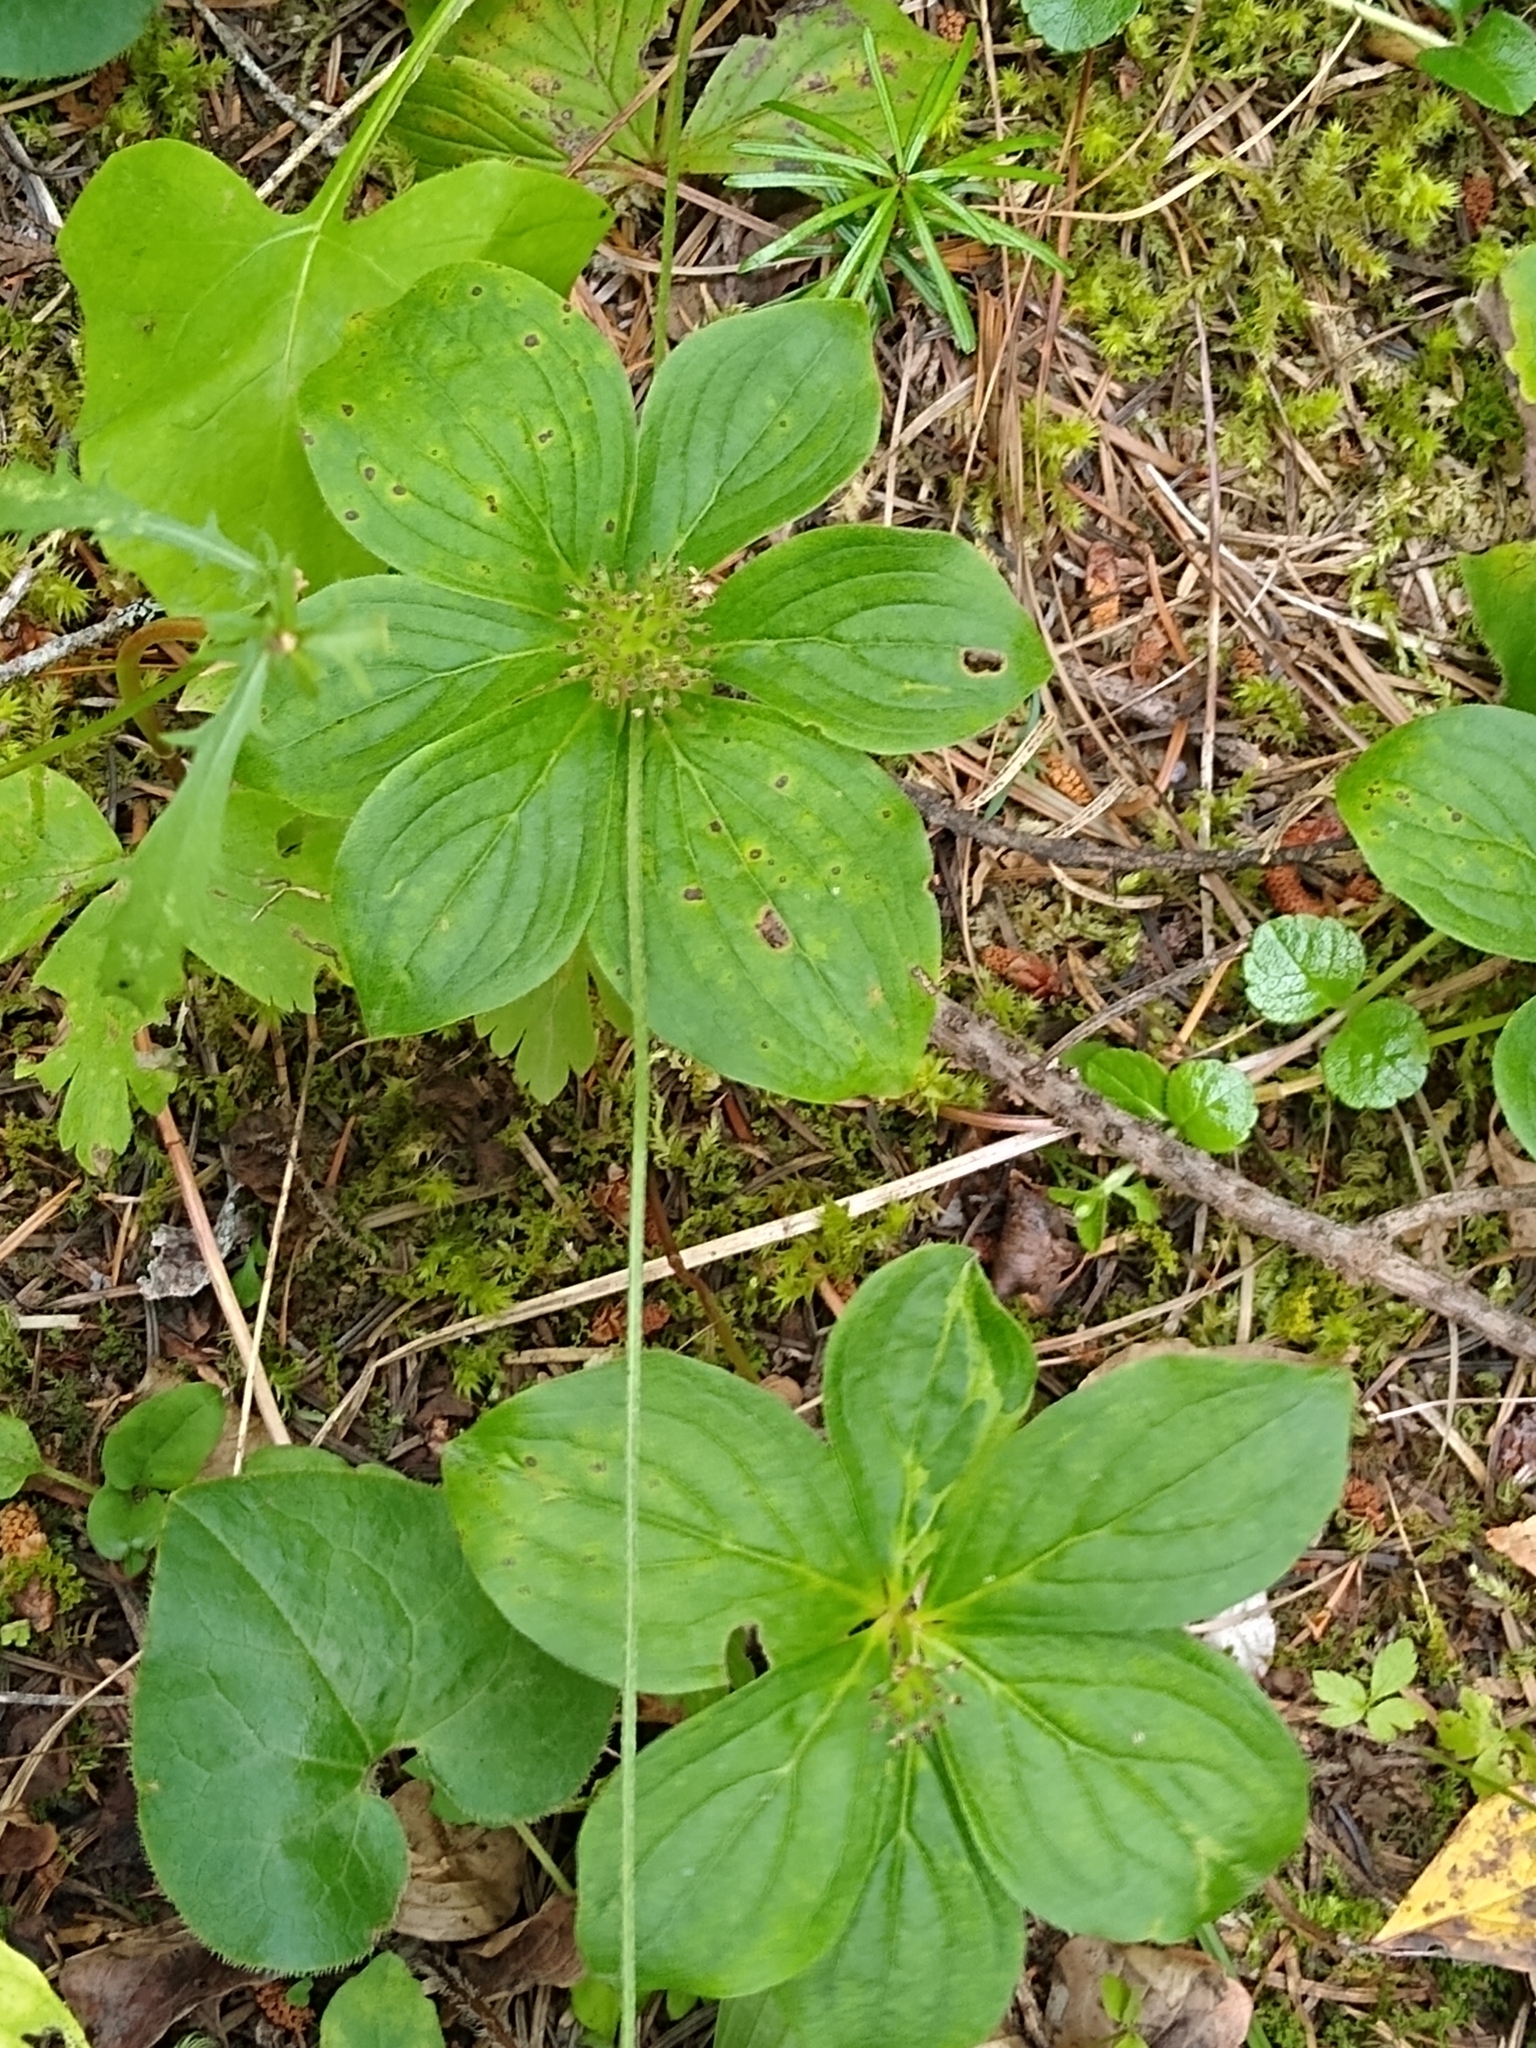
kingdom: Plantae
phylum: Tracheophyta
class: Magnoliopsida
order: Cornales
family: Cornaceae
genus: Cornus
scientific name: Cornus unalaschkensis
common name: Alaska bunchberry
